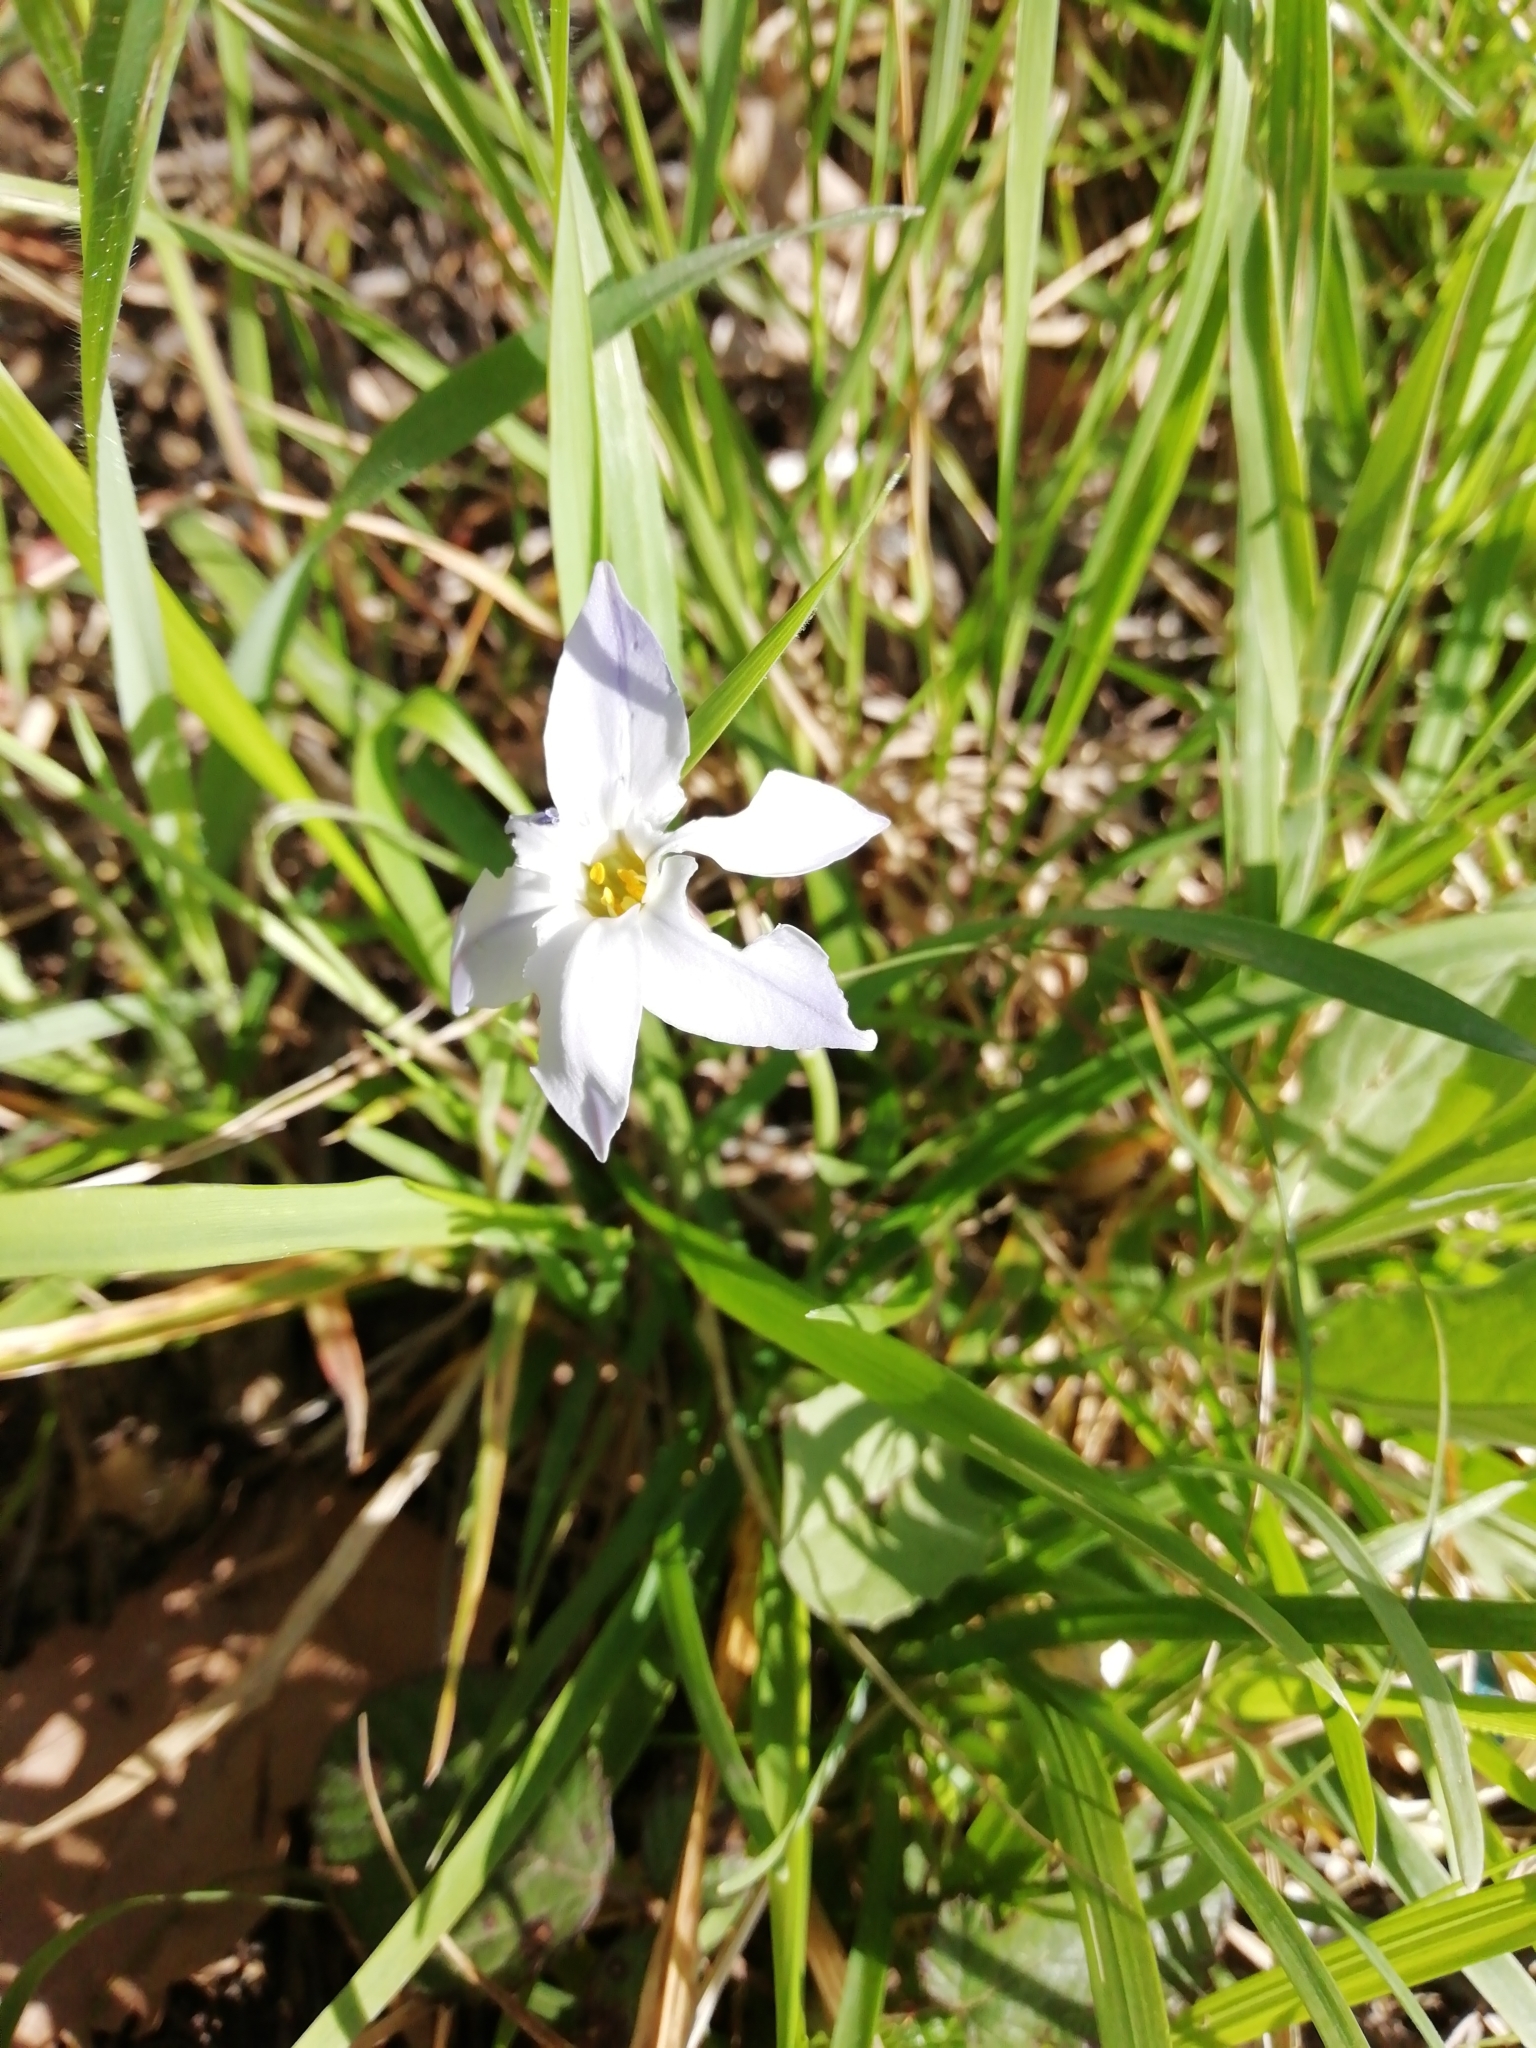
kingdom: Plantae
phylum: Tracheophyta
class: Liliopsida
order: Asparagales
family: Amaryllidaceae
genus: Ipheion
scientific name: Ipheion uniflorum
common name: Spring starflower
